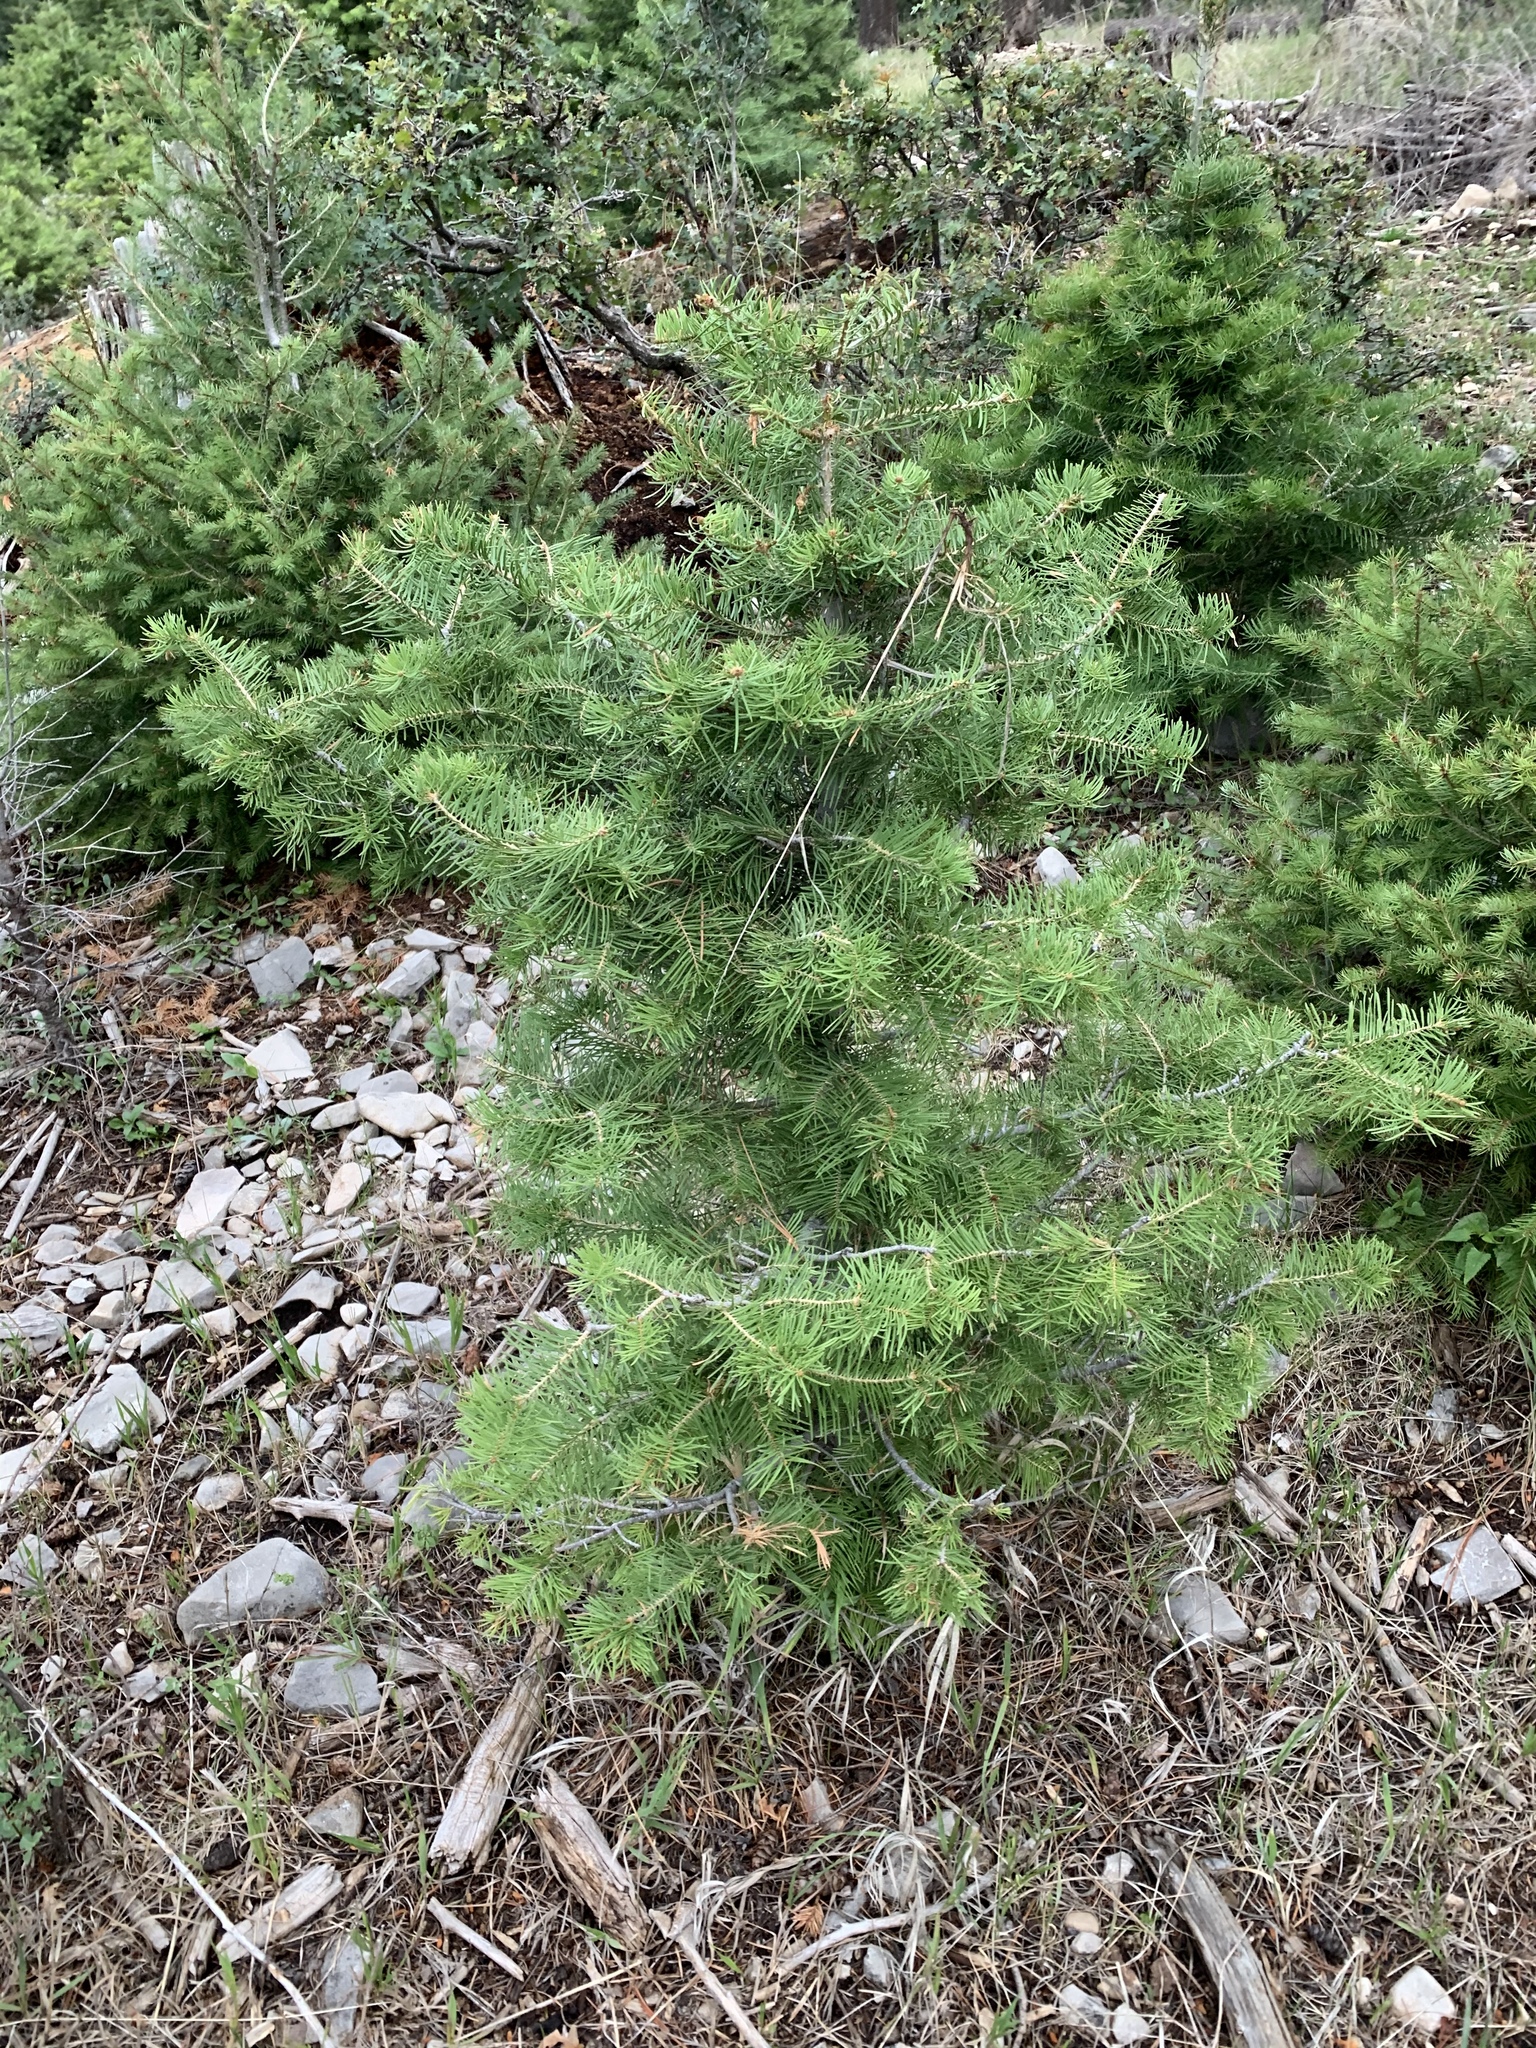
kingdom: Plantae
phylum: Tracheophyta
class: Pinopsida
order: Pinales
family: Pinaceae
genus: Abies
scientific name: Abies concolor
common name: Colorado fir
